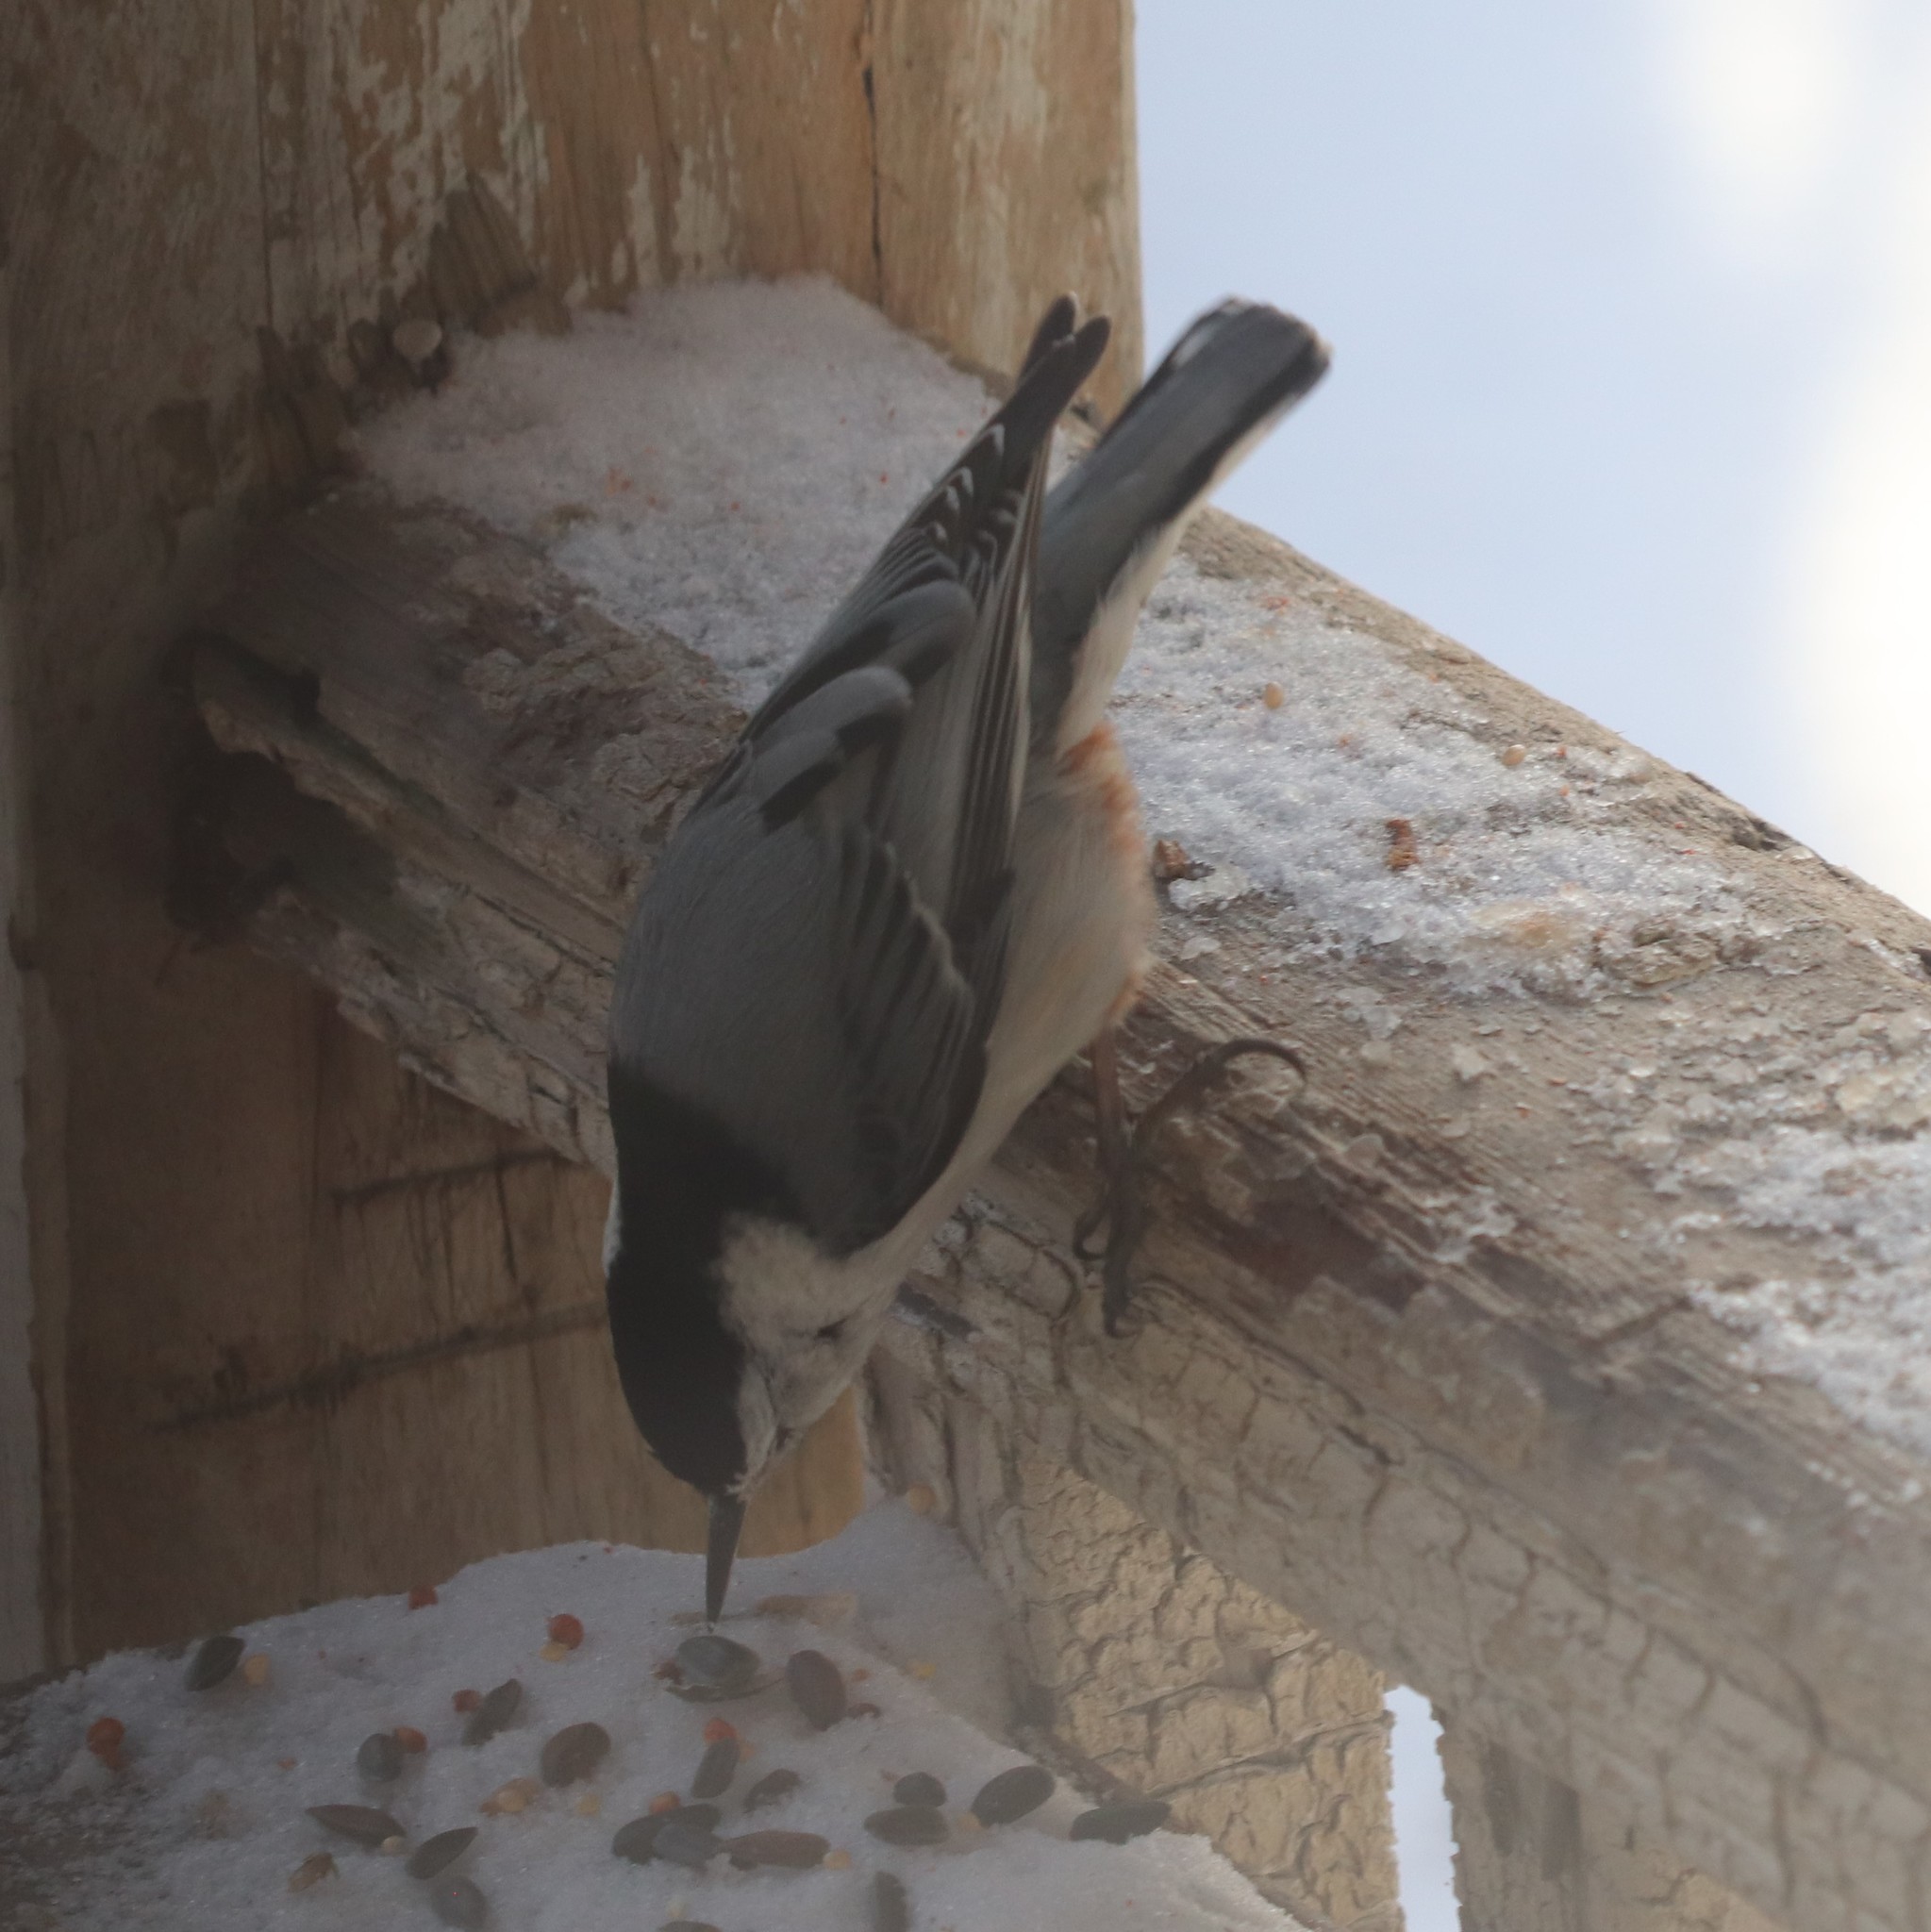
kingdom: Animalia
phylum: Chordata
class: Aves
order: Passeriformes
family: Sittidae
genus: Sitta
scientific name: Sitta carolinensis
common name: White-breasted nuthatch
